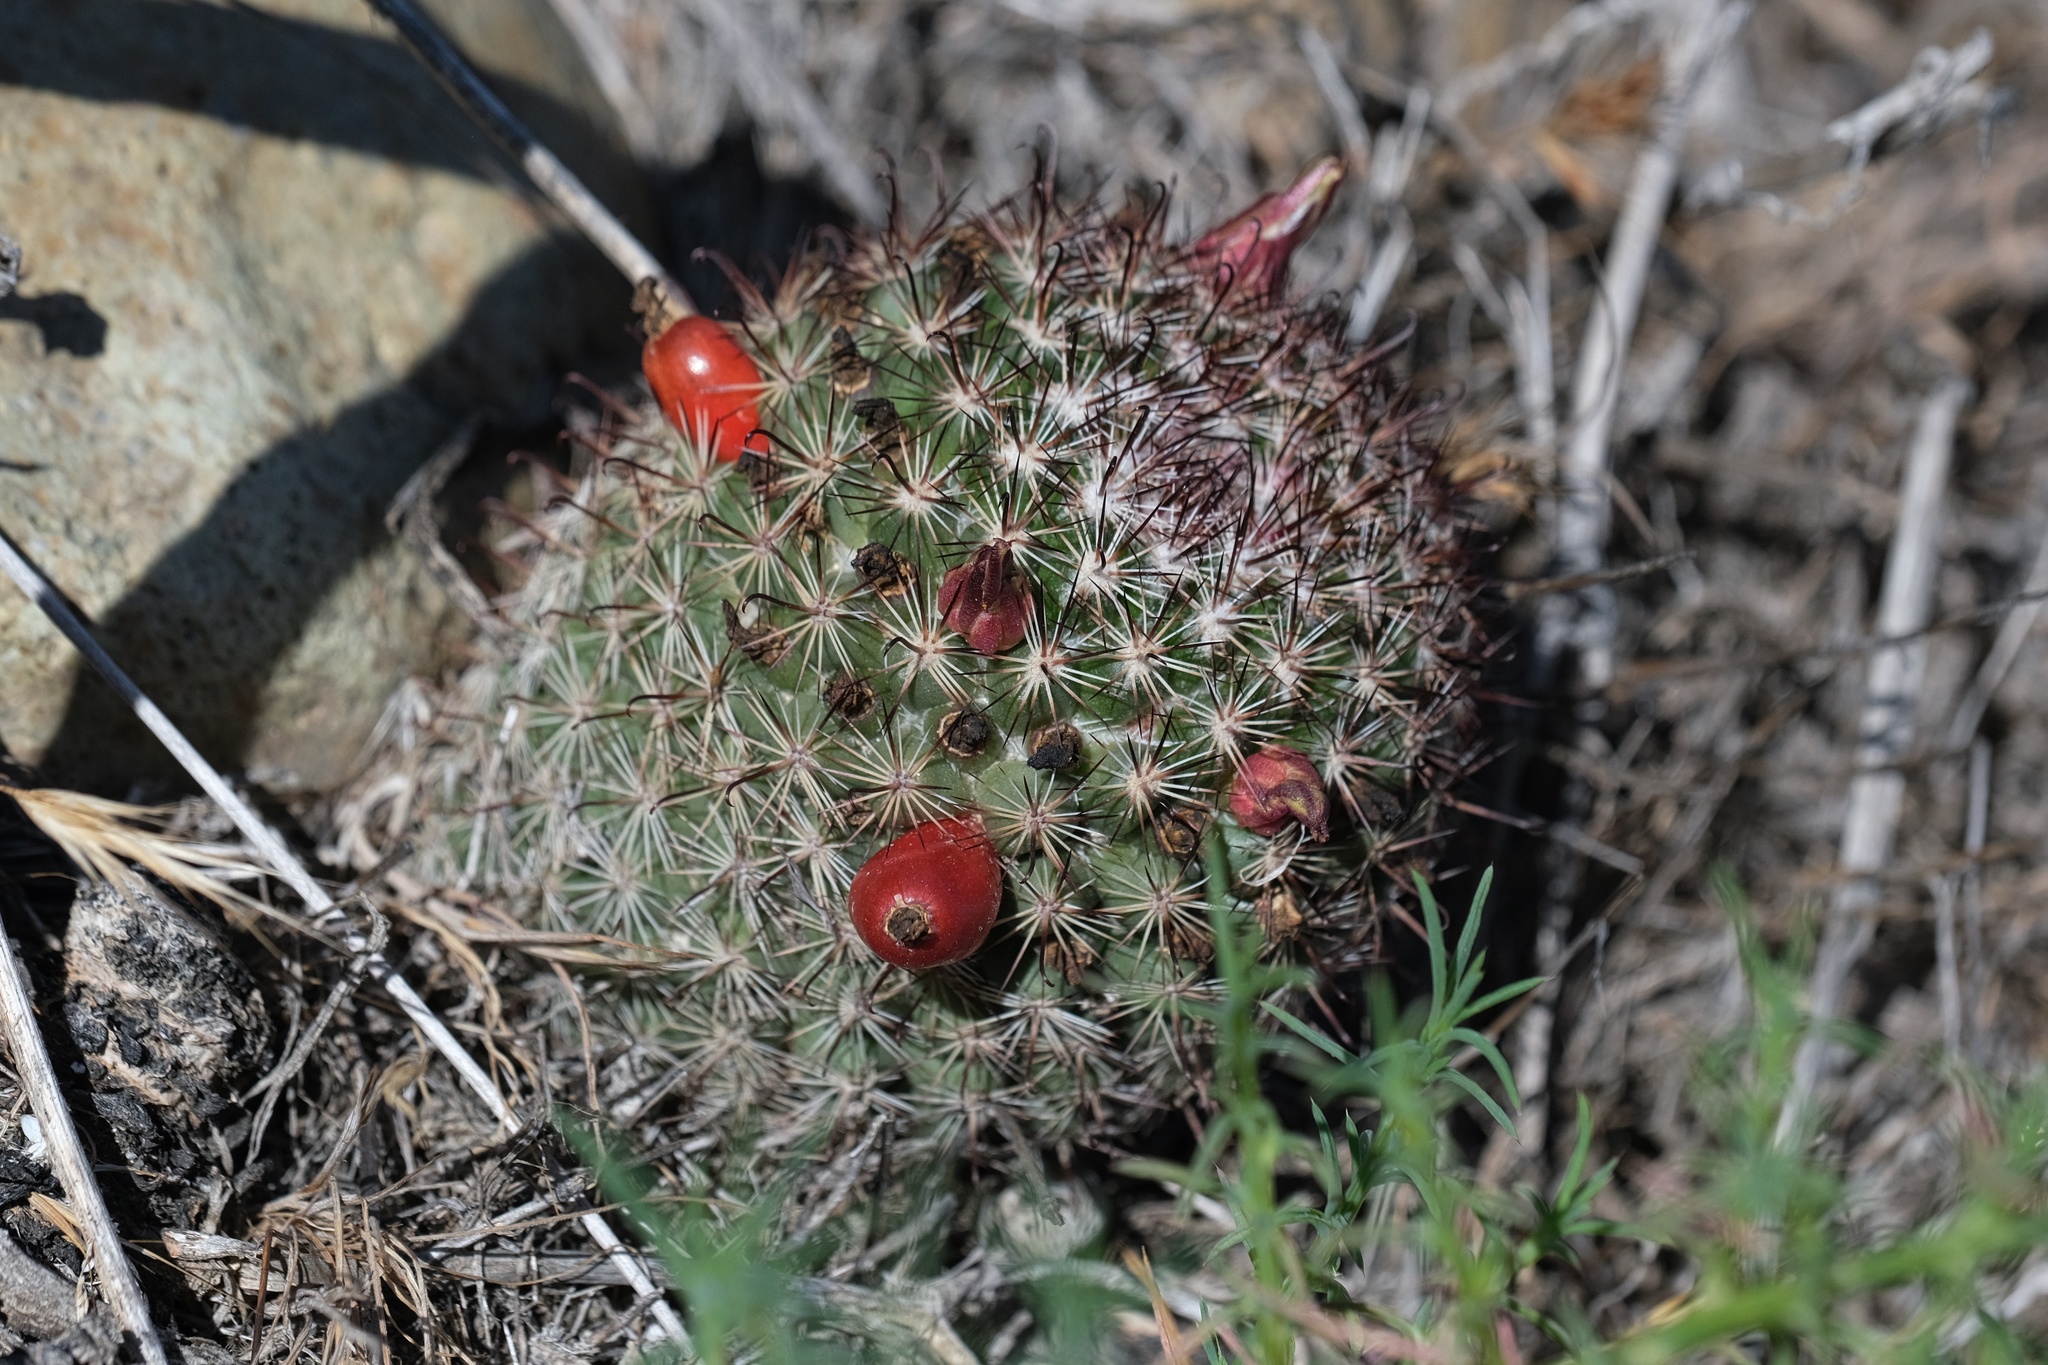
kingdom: Plantae
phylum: Tracheophyta
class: Magnoliopsida
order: Caryophyllales
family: Cactaceae
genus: Cochemiea
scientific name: Cochemiea dioica
